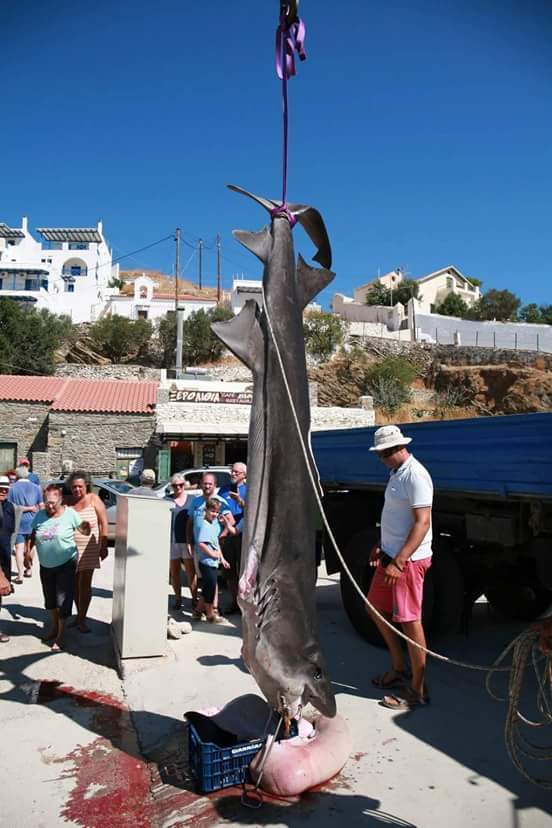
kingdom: Animalia
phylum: Chordata
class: Elasmobranchii
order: Lamniformes
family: Odontaspididae
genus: Odontaspis
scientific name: Odontaspis ferox
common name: Smalltooth sand tiger
